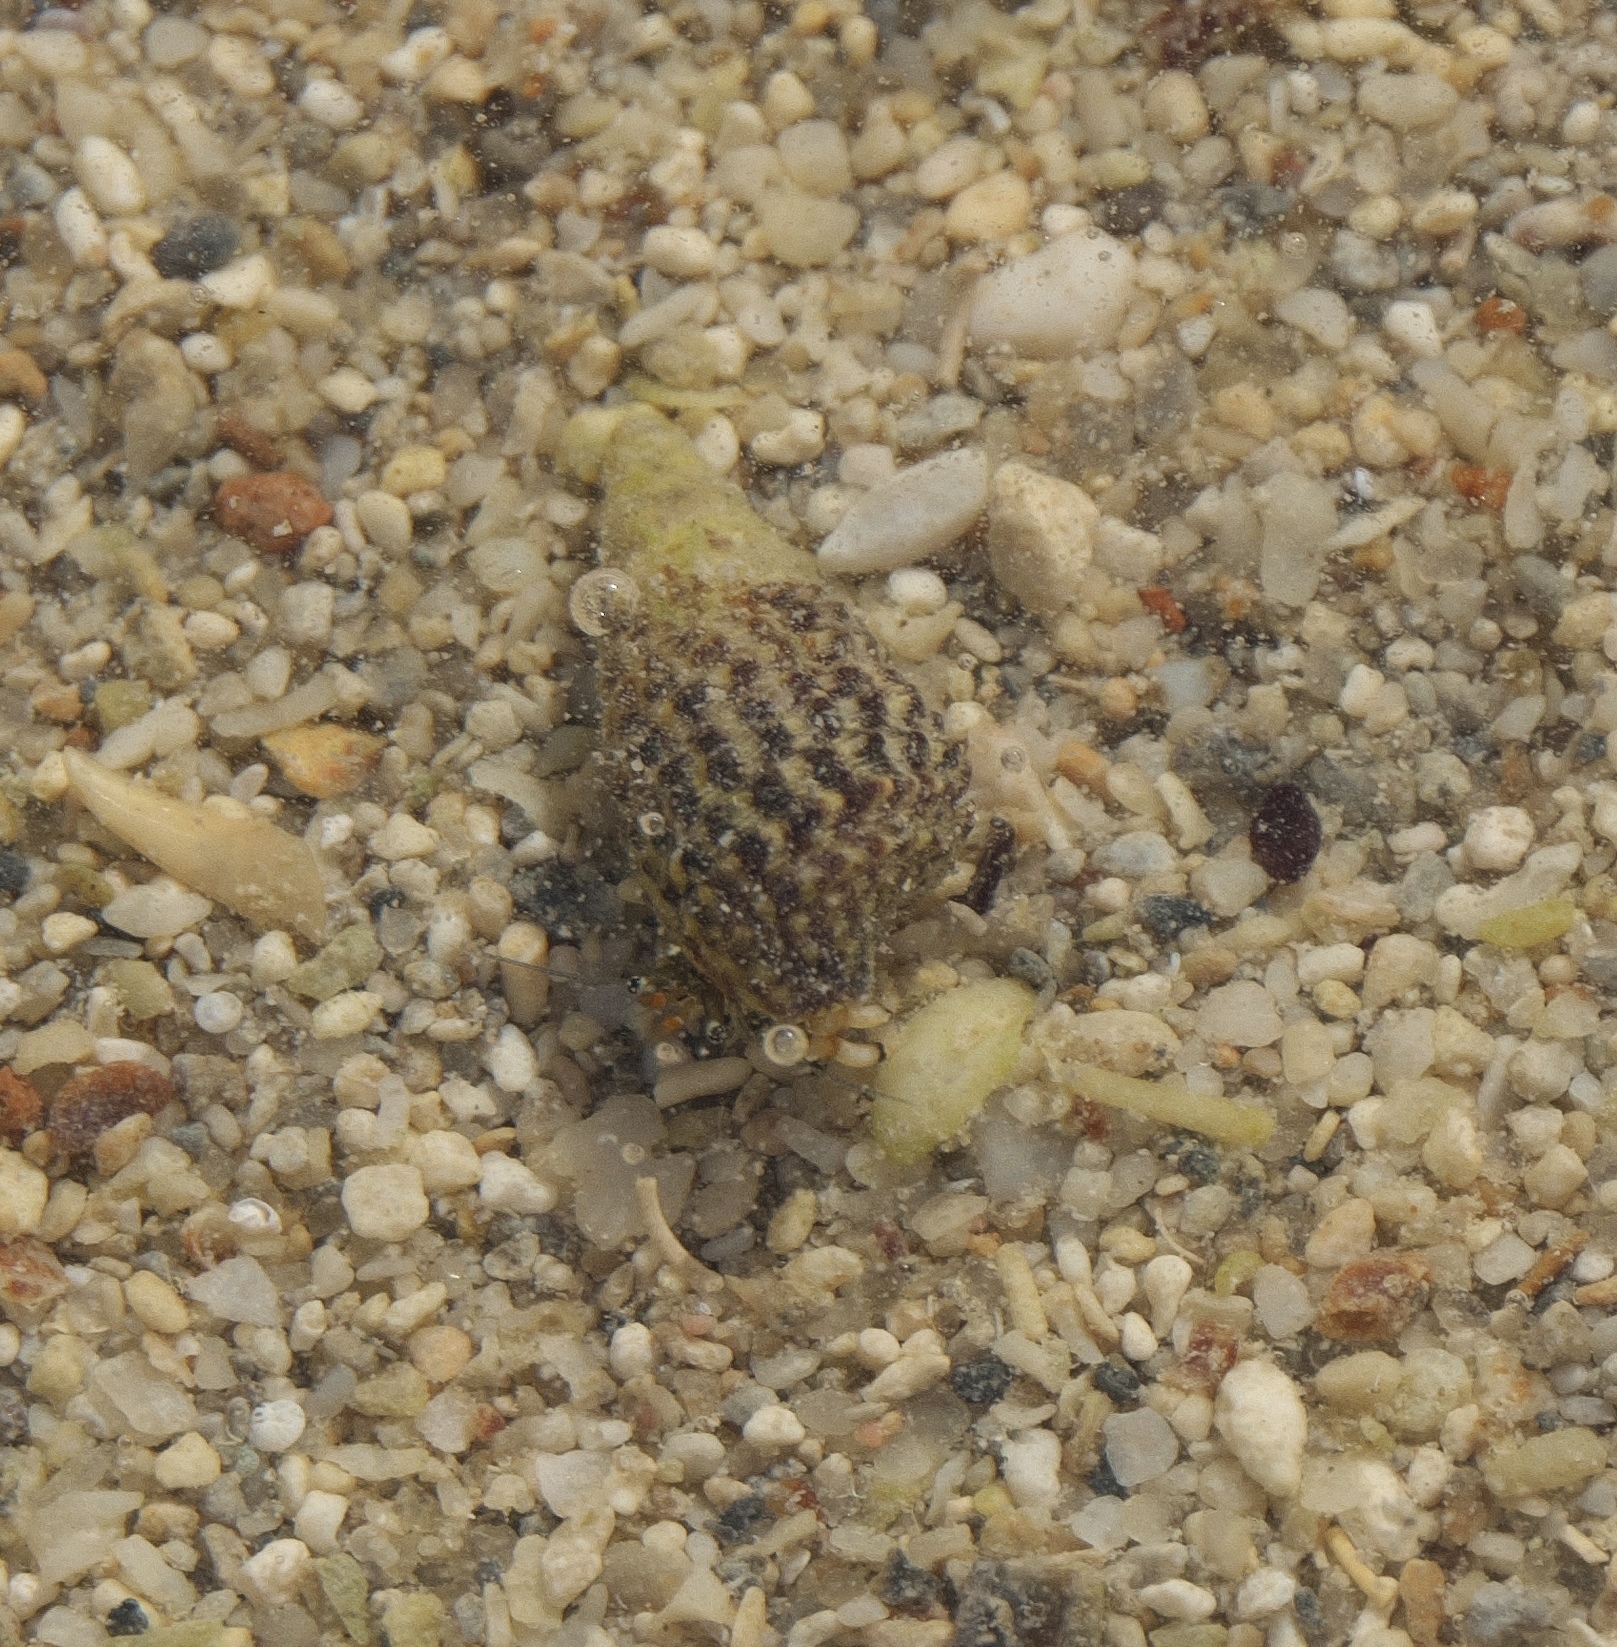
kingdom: Animalia
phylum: Mollusca
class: Gastropoda
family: Planaxidae
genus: Planaxis
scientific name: Planaxis sulcatus
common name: Furrowed planaxis
